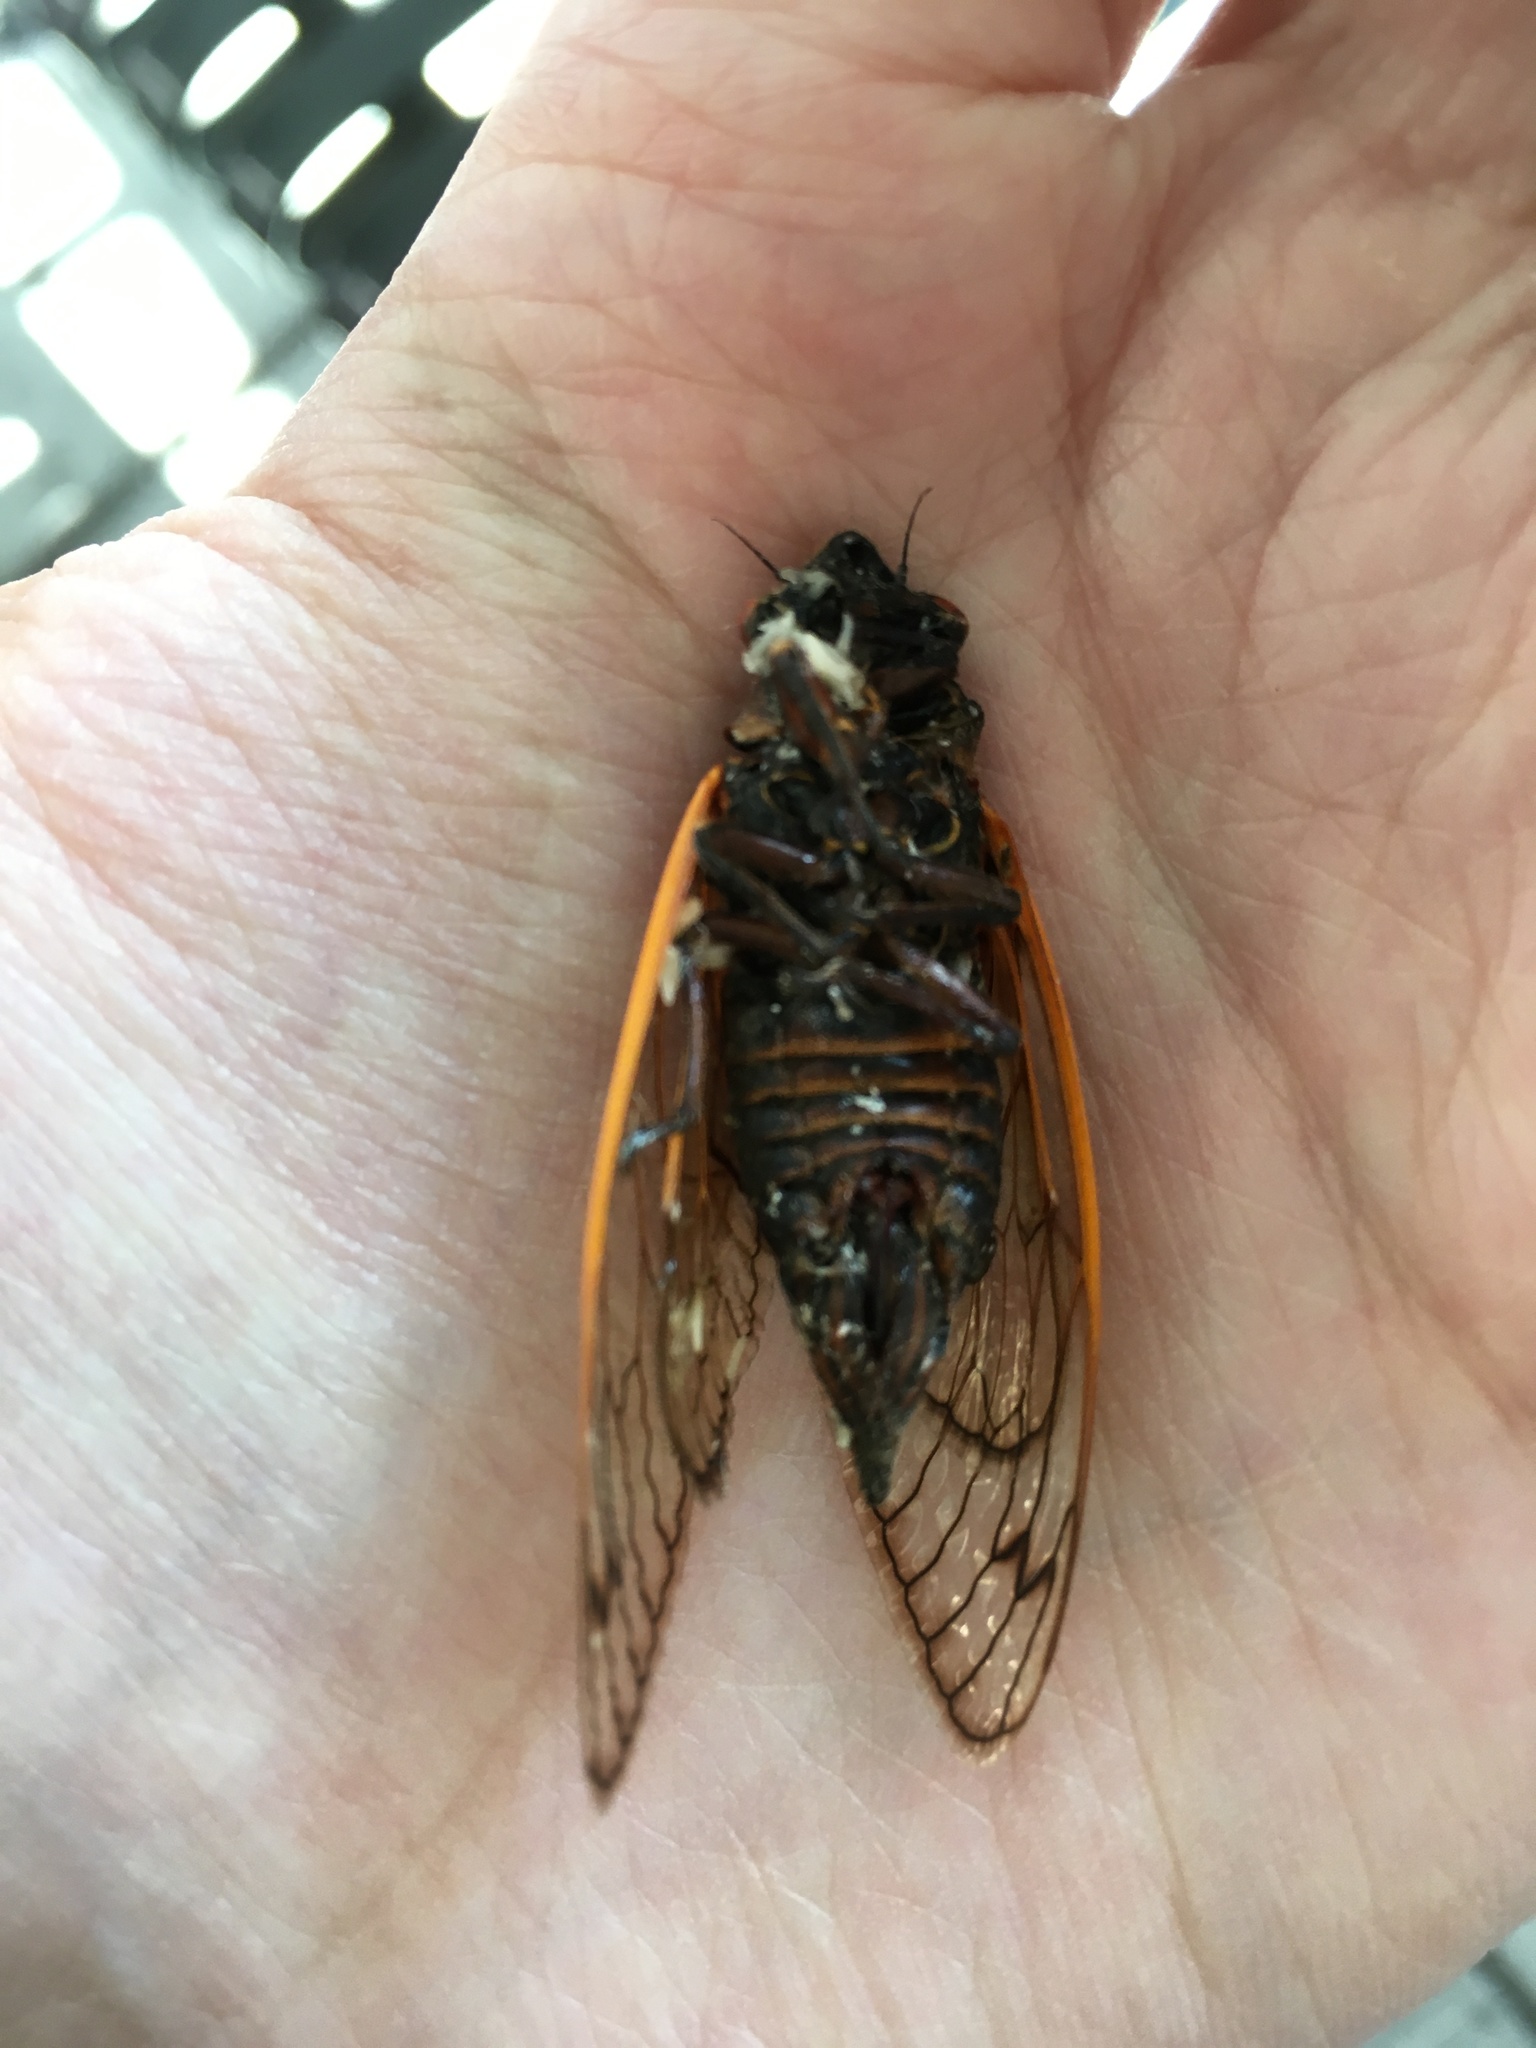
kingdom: Animalia
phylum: Arthropoda
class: Insecta
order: Hemiptera
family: Cicadidae
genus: Magicicada
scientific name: Magicicada septendecim
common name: Periodical cicada
